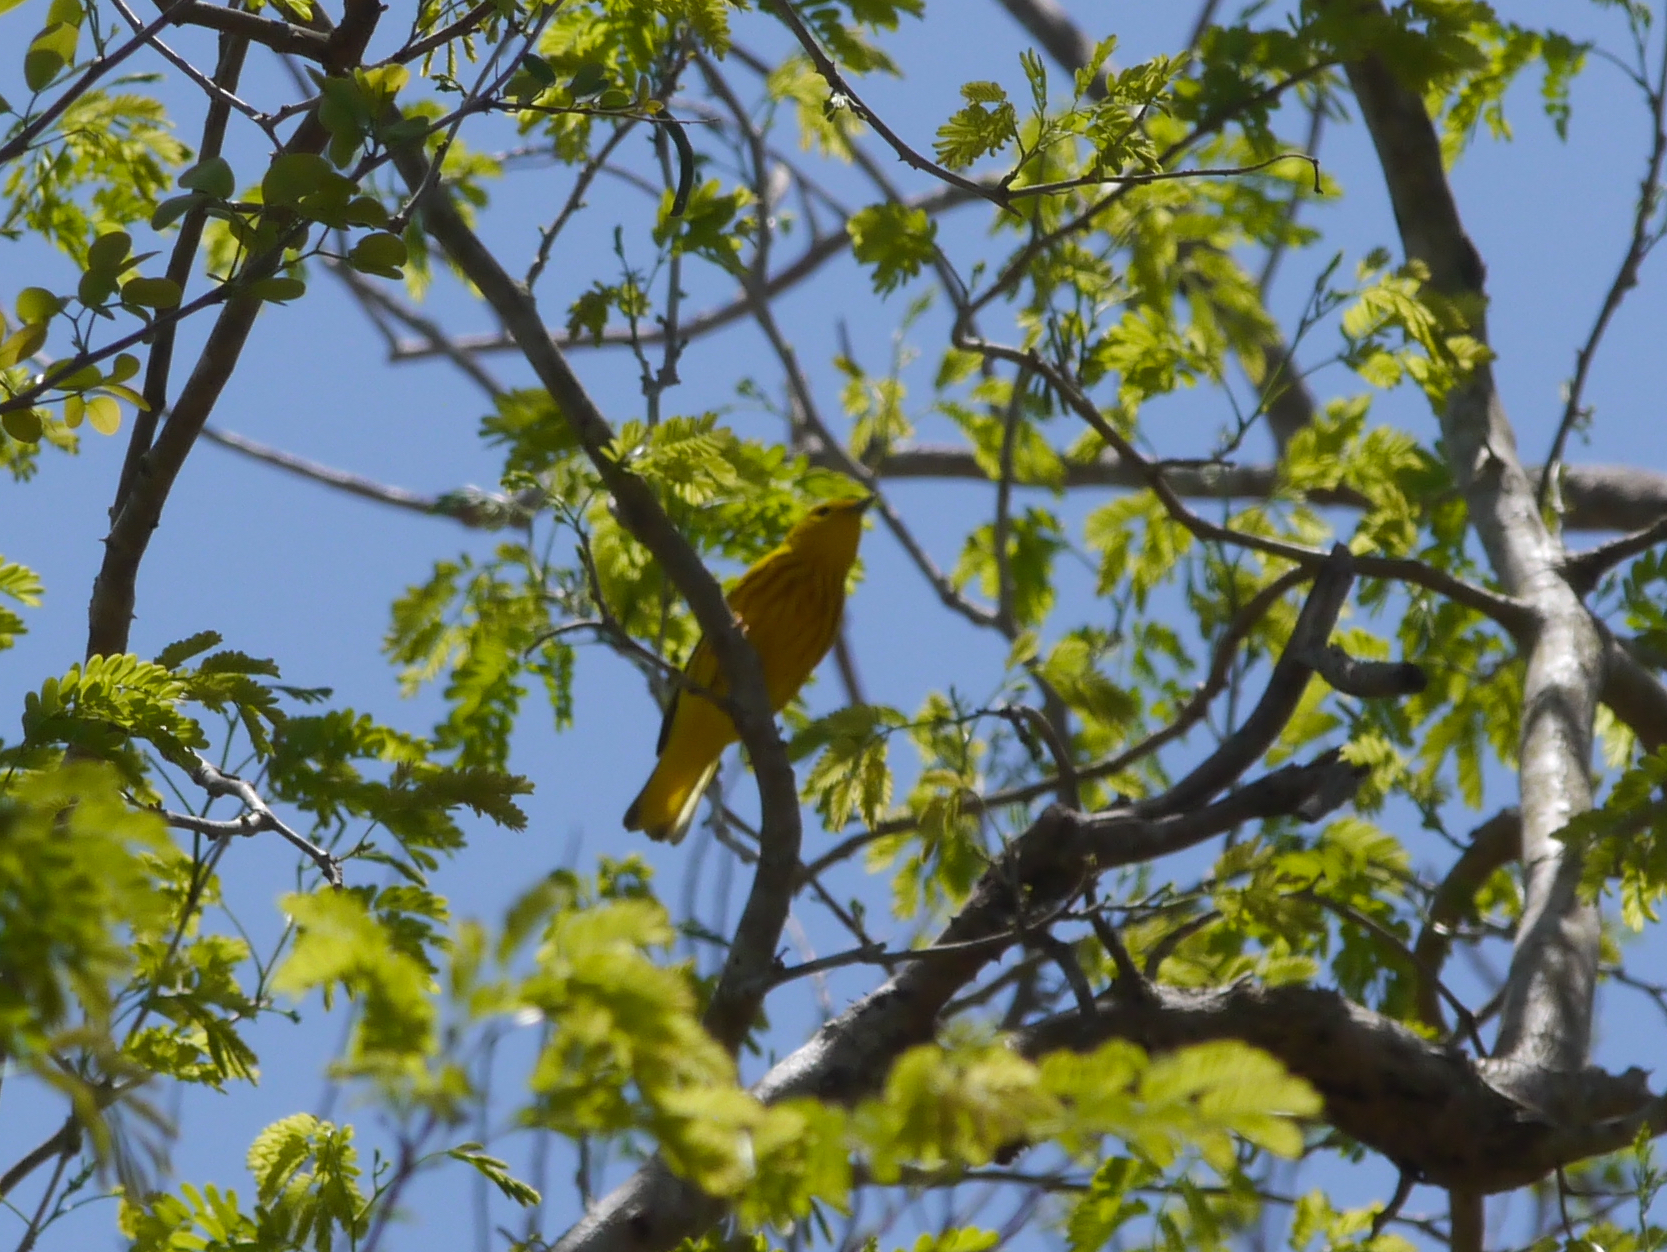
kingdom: Animalia
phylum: Chordata
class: Aves
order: Passeriformes
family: Parulidae
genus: Setophaga
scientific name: Setophaga petechia
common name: Yellow warbler
